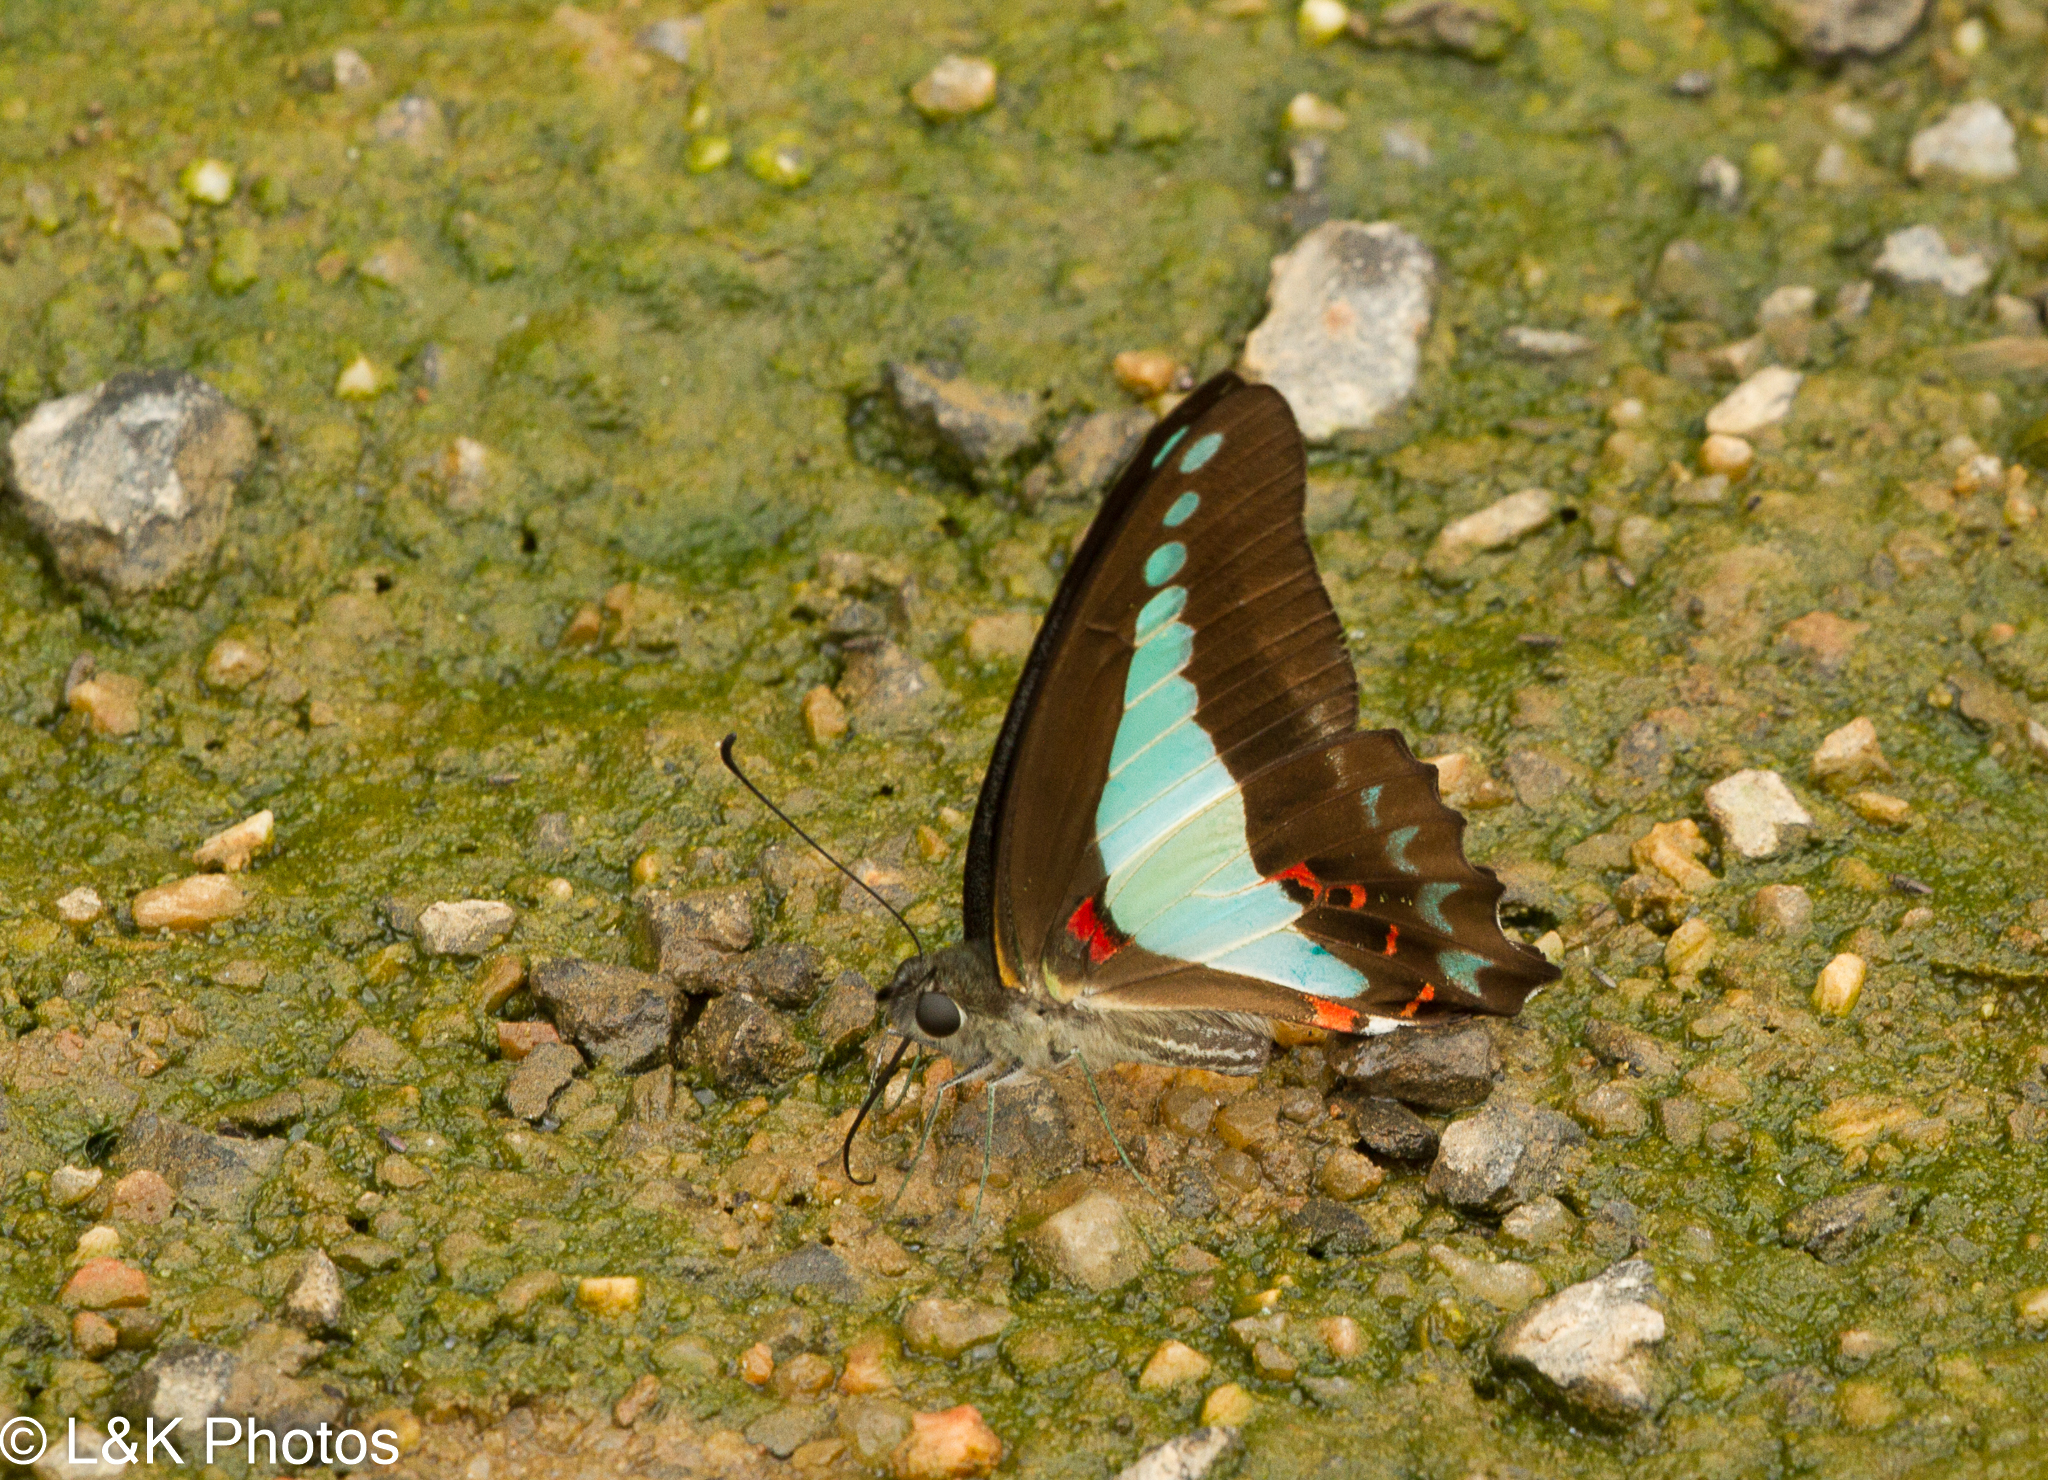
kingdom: Animalia
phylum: Arthropoda
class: Insecta
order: Lepidoptera
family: Papilionidae
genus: Graphium
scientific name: Graphium
